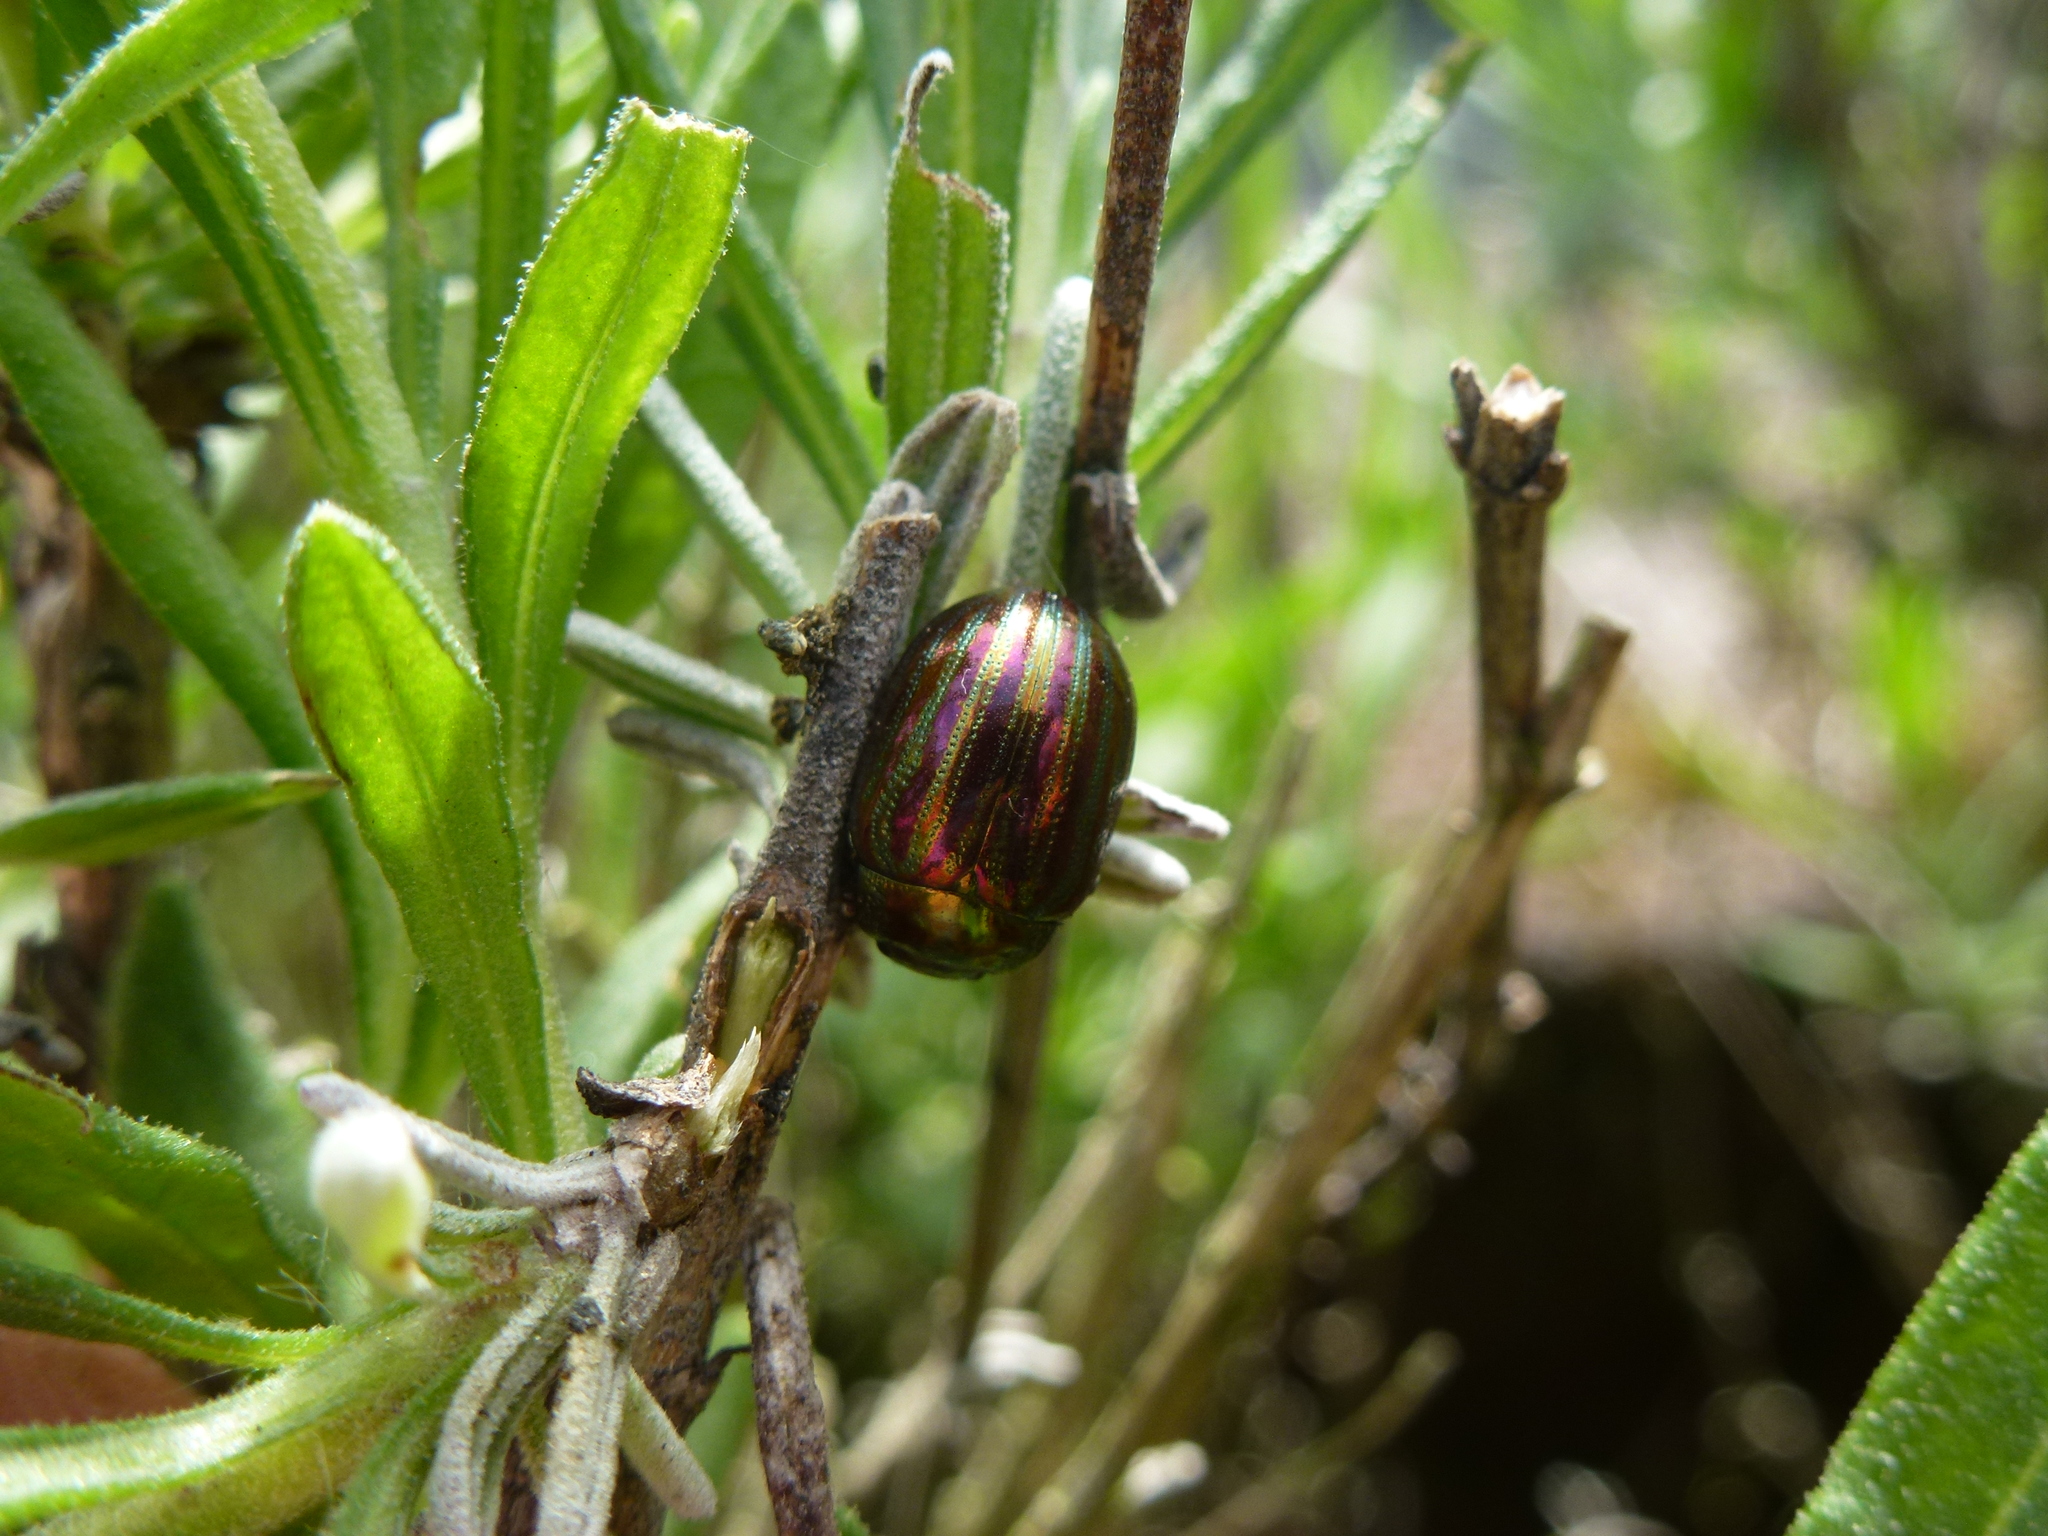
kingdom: Animalia
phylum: Arthropoda
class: Insecta
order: Coleoptera
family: Chrysomelidae
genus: Chrysolina
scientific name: Chrysolina americana
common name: Rosemary beetle
